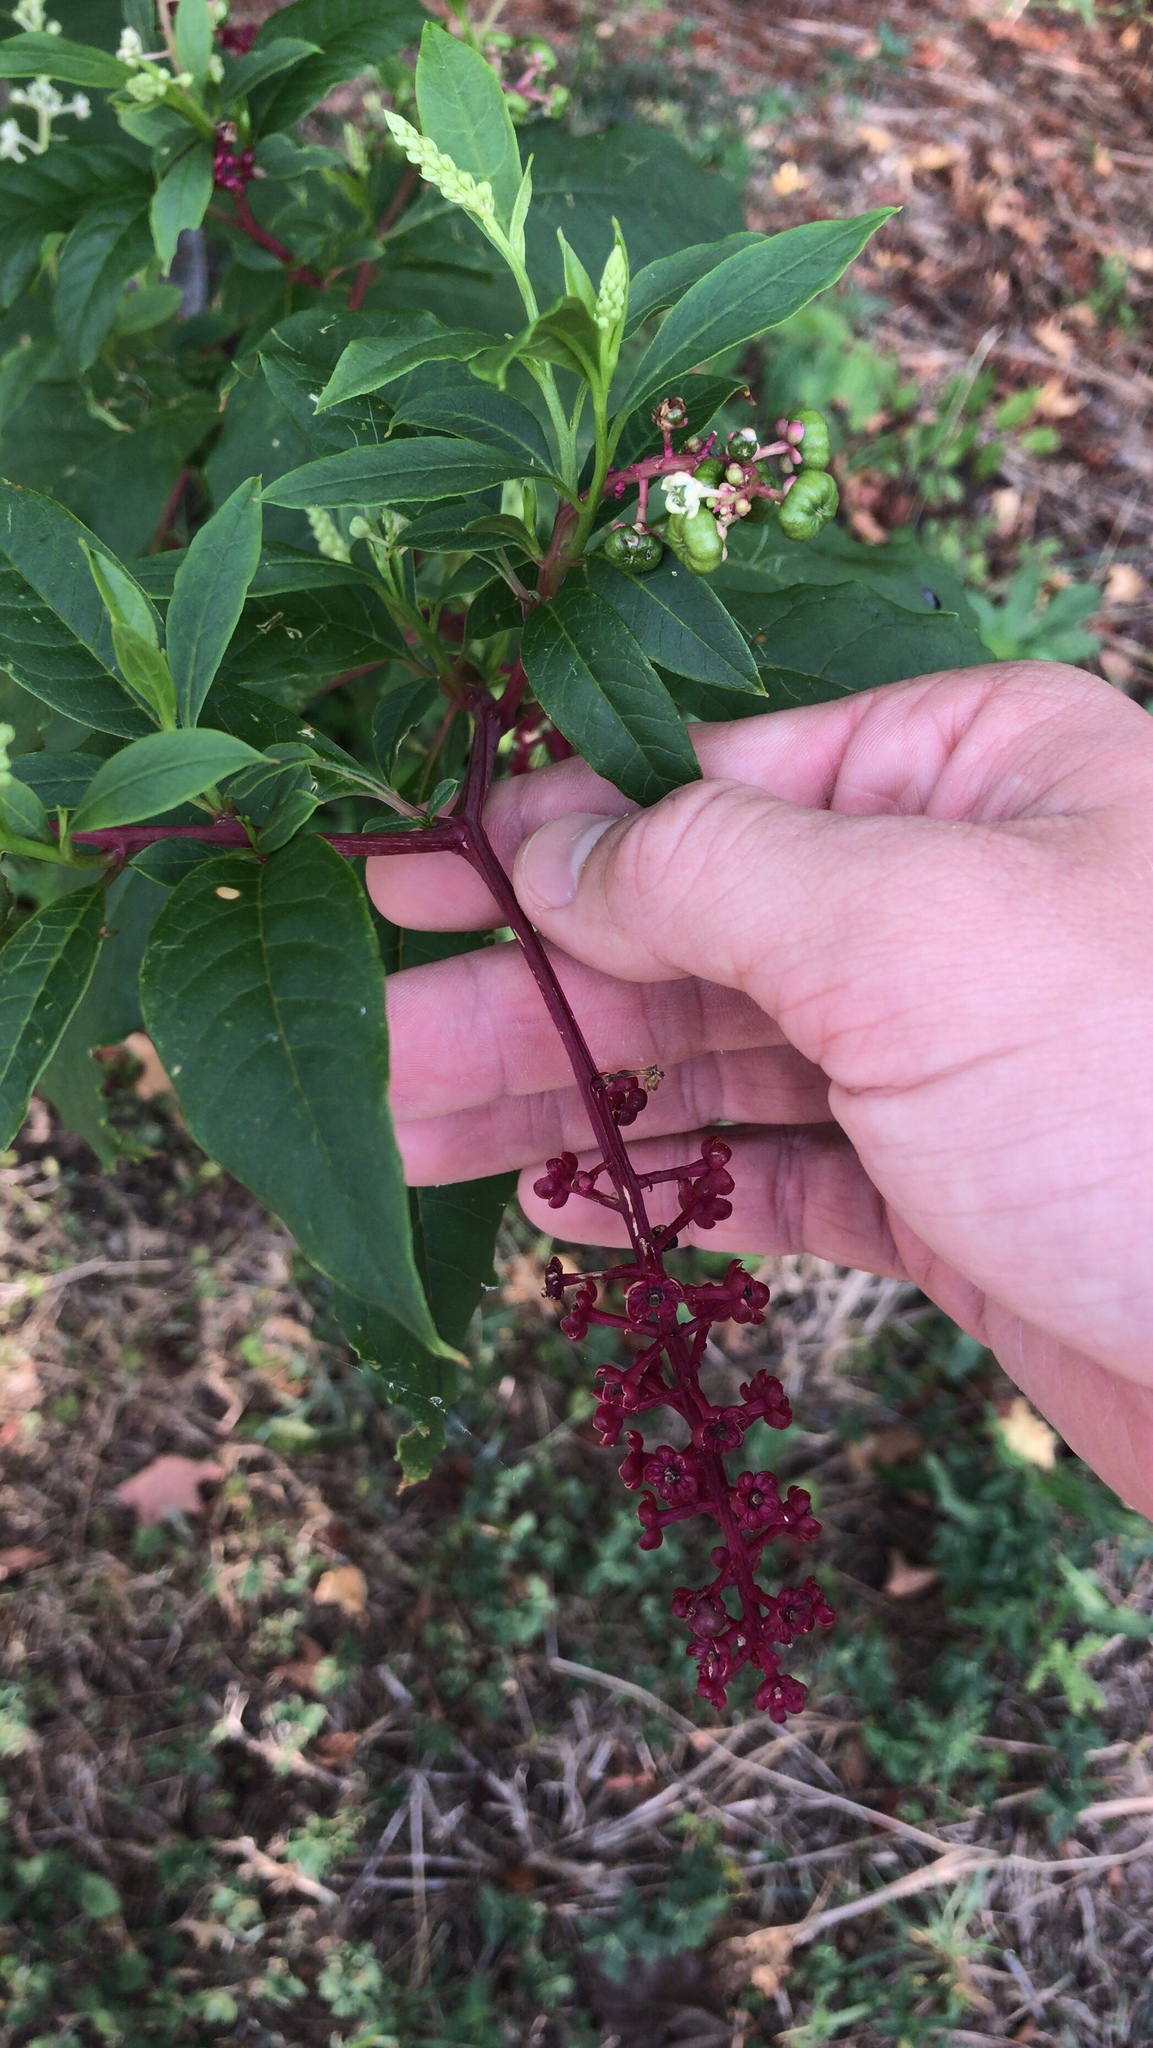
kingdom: Plantae
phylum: Tracheophyta
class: Magnoliopsida
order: Caryophyllales
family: Phytolaccaceae
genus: Phytolacca
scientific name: Phytolacca americana
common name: American pokeweed
